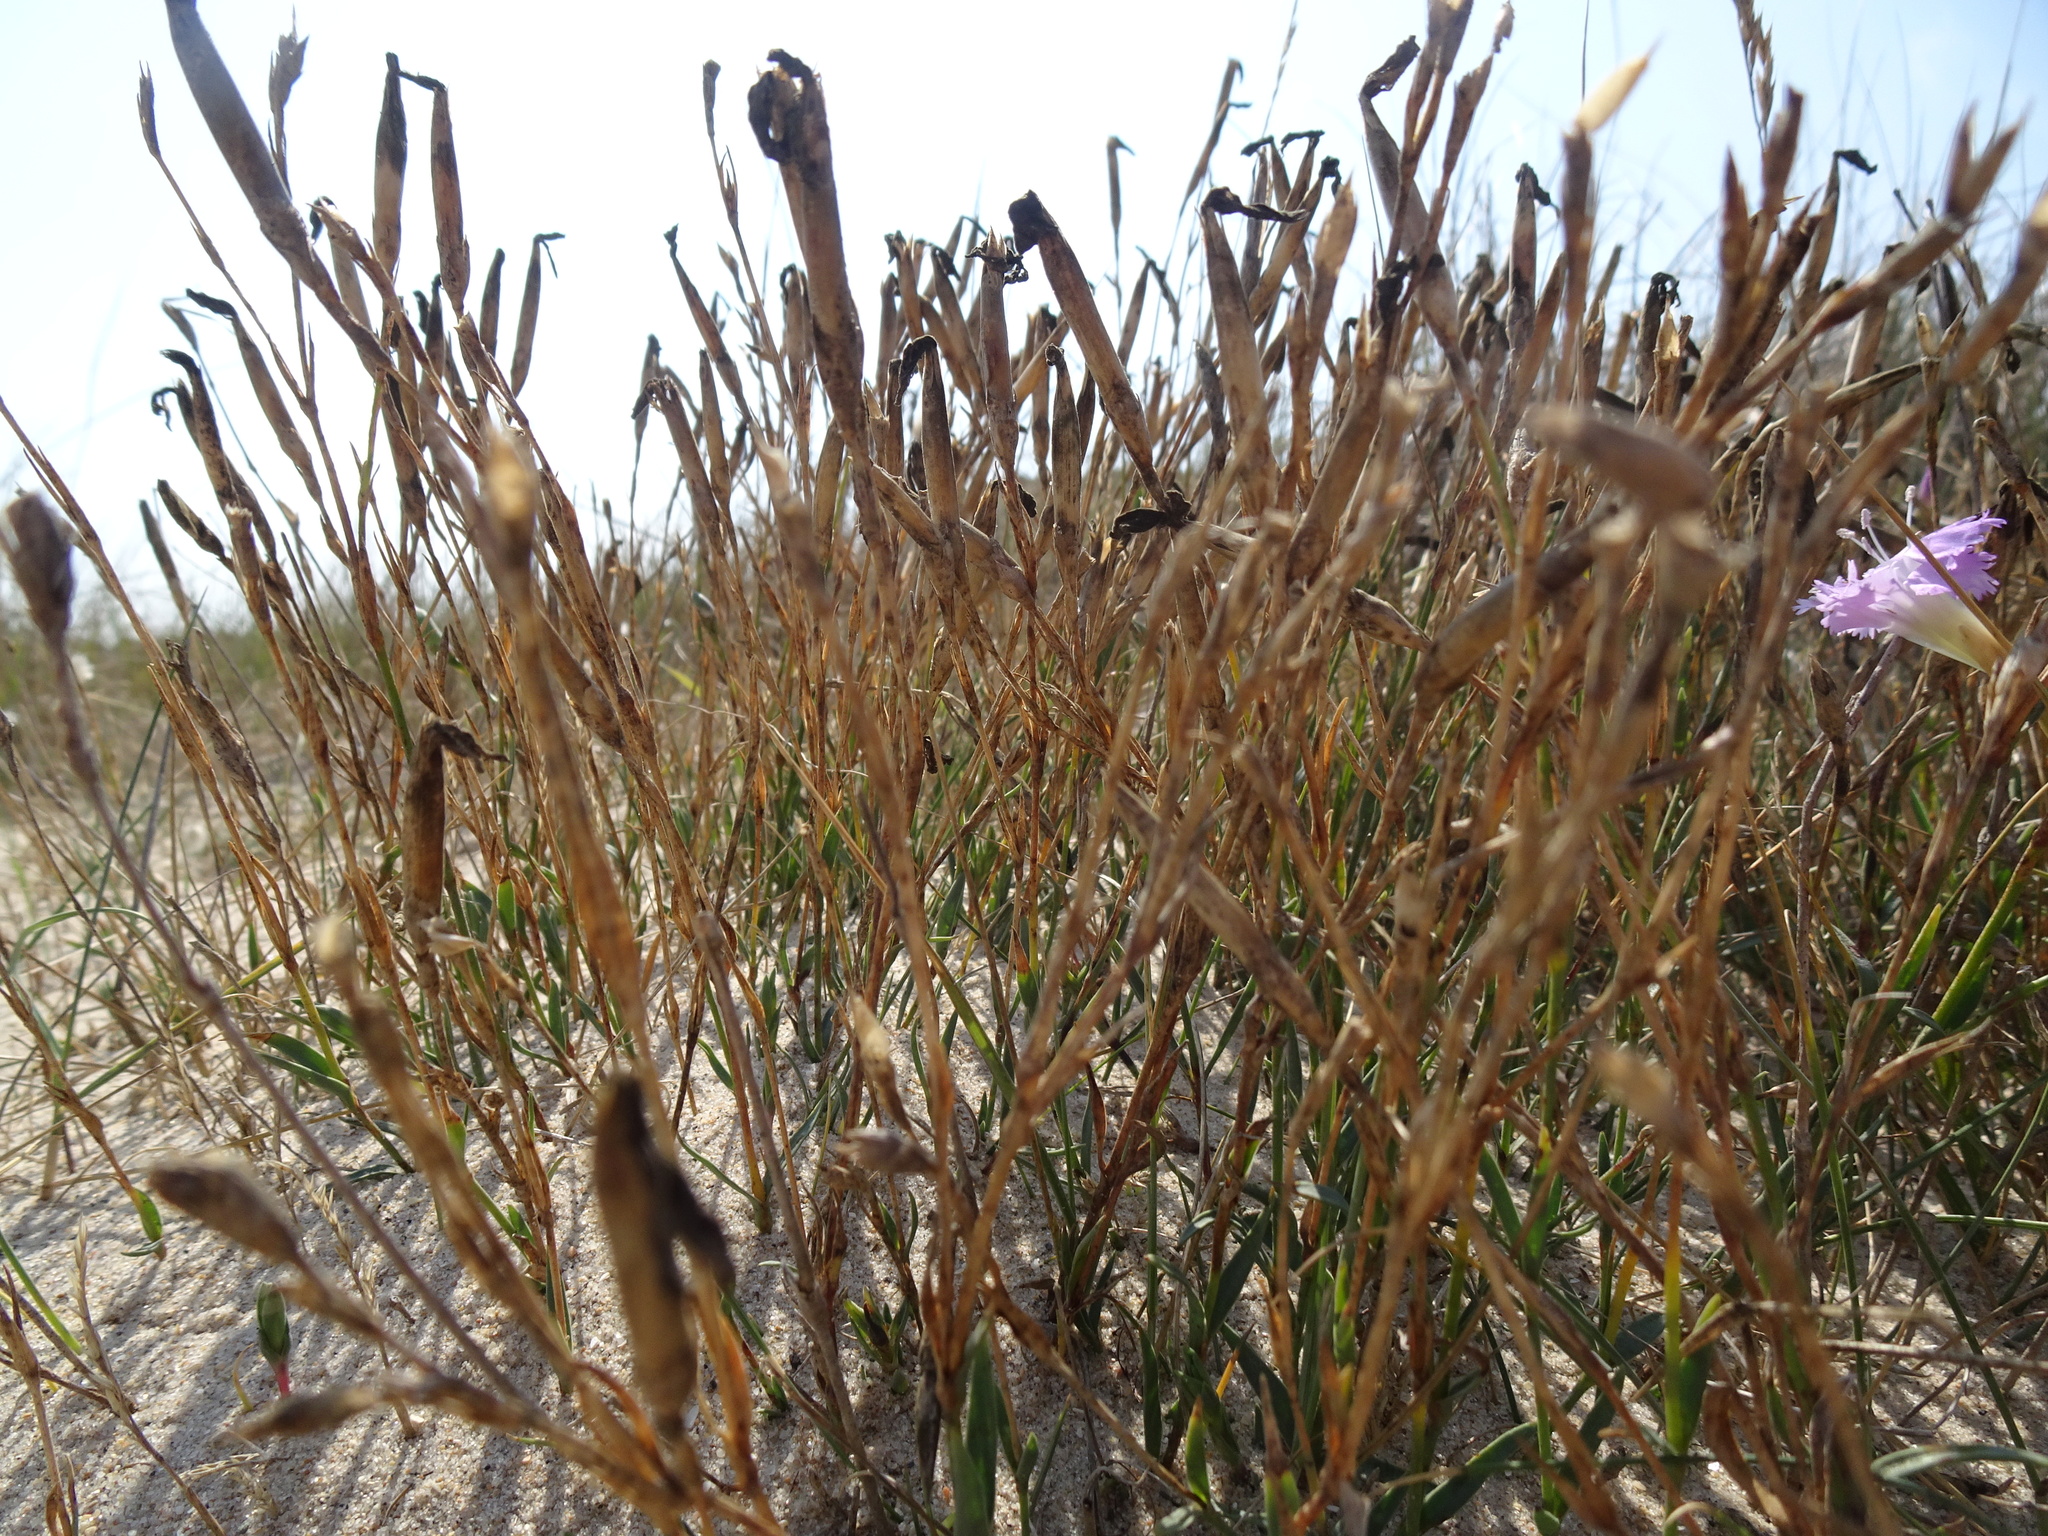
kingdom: Plantae
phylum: Tracheophyta
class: Magnoliopsida
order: Caryophyllales
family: Caryophyllaceae
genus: Dianthus
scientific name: Dianthus gallicus
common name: Jersey pink
